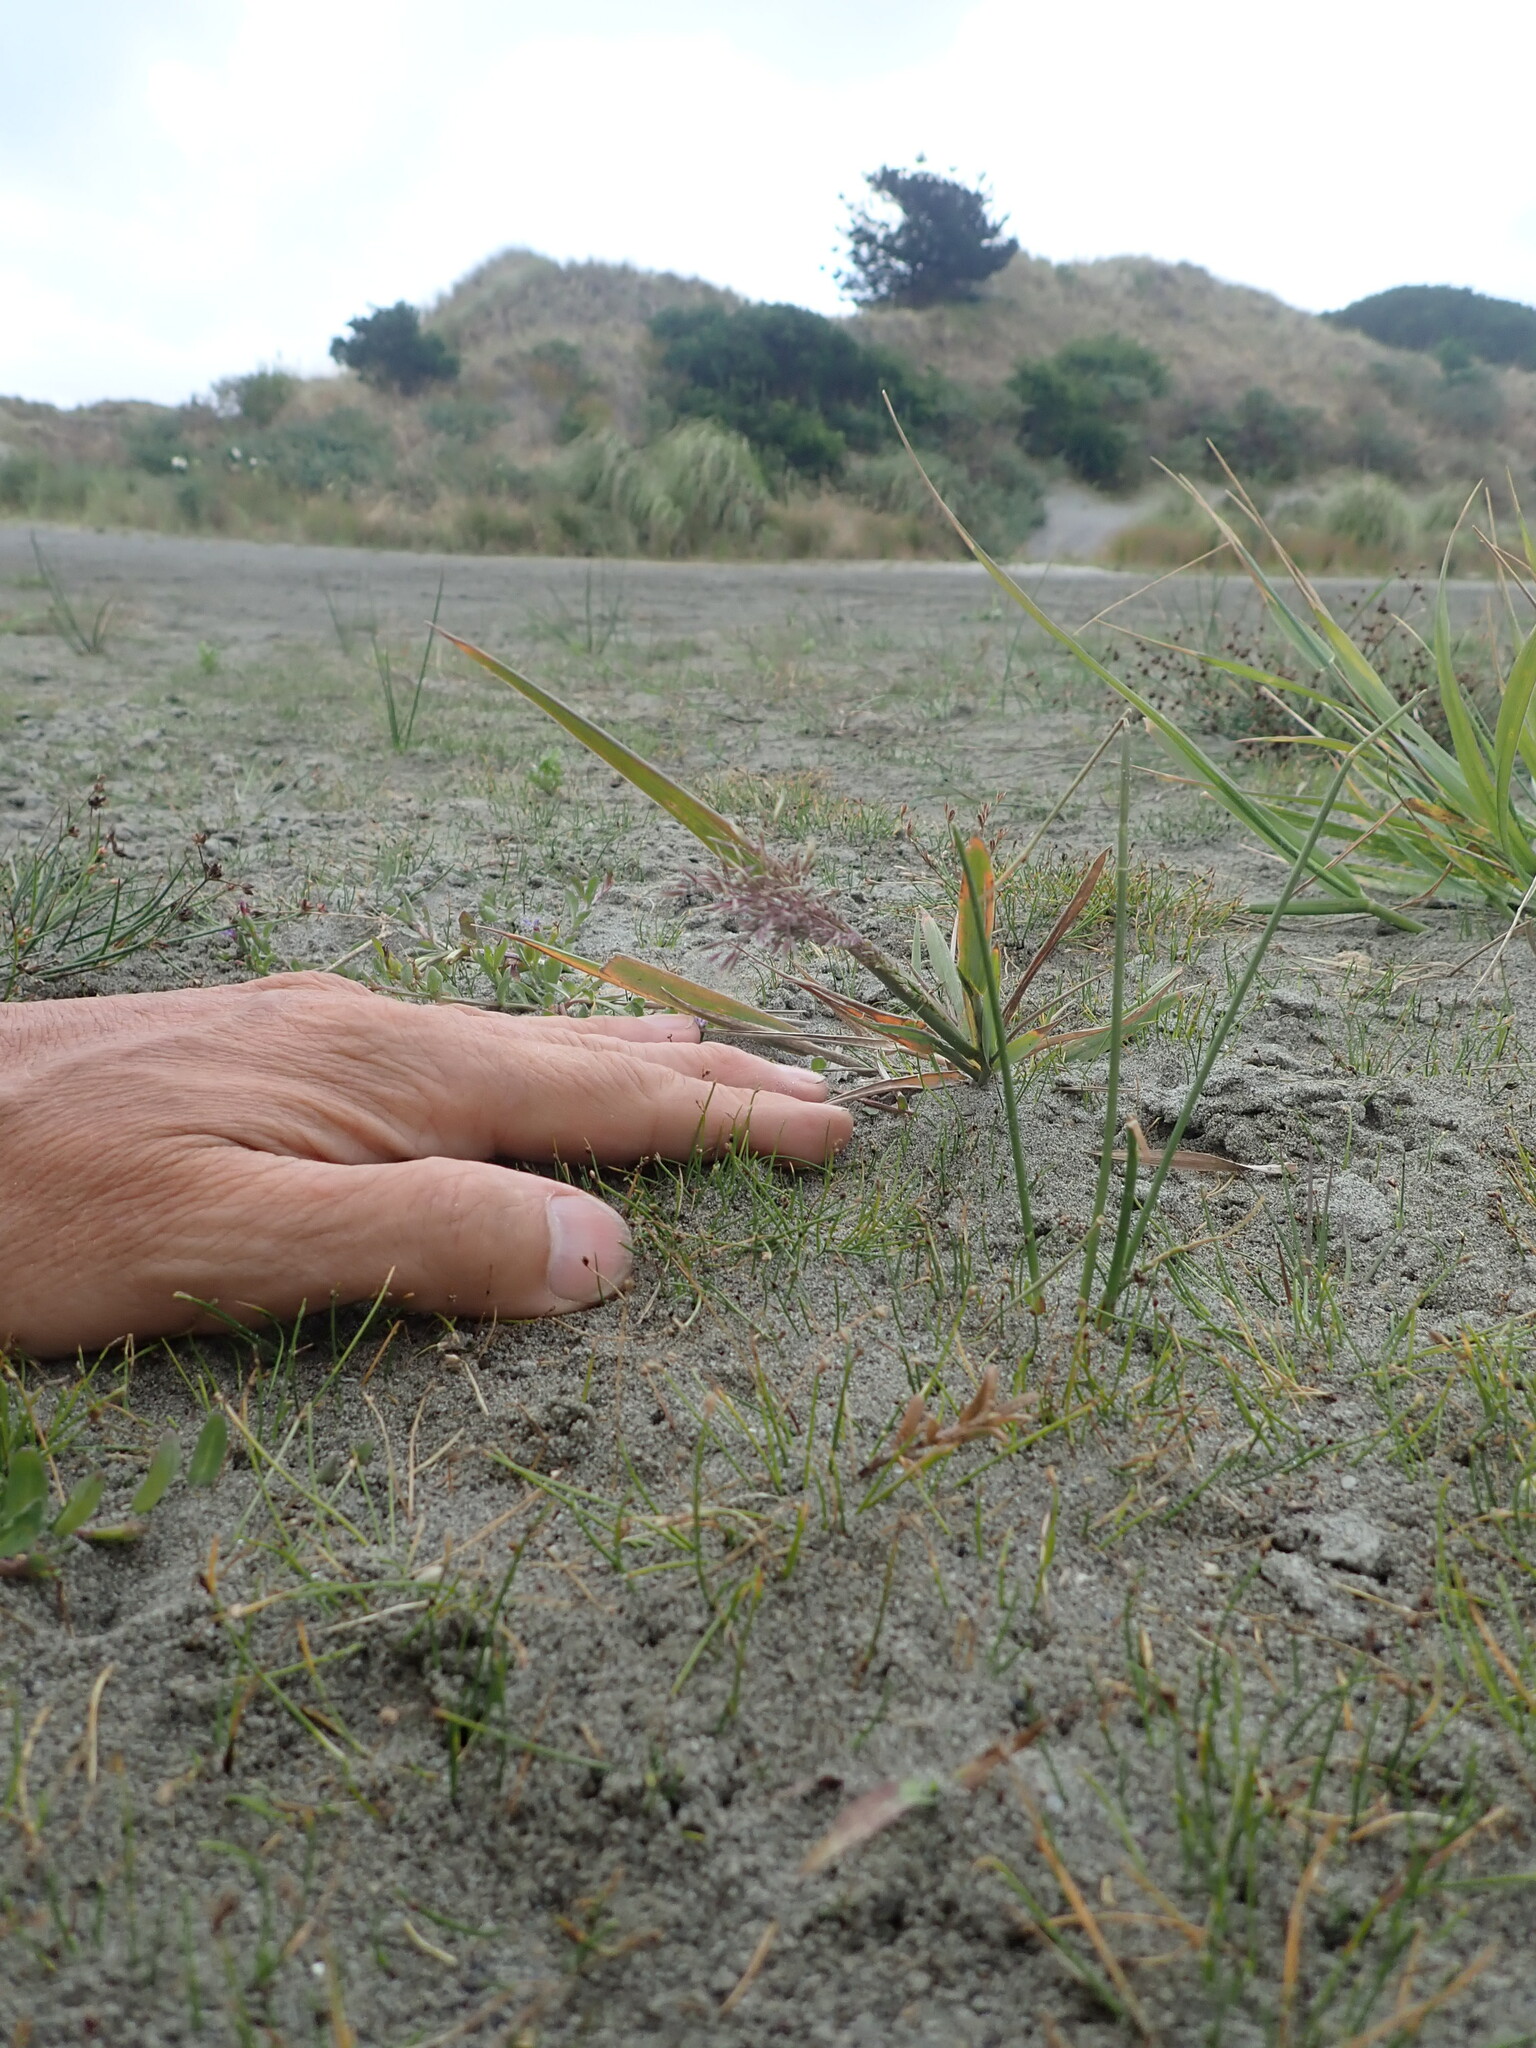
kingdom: Plantae
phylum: Tracheophyta
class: Magnoliopsida
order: Gentianales
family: Rubiaceae
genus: Coprosma
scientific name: Coprosma acerosa
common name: Sand coprosma
